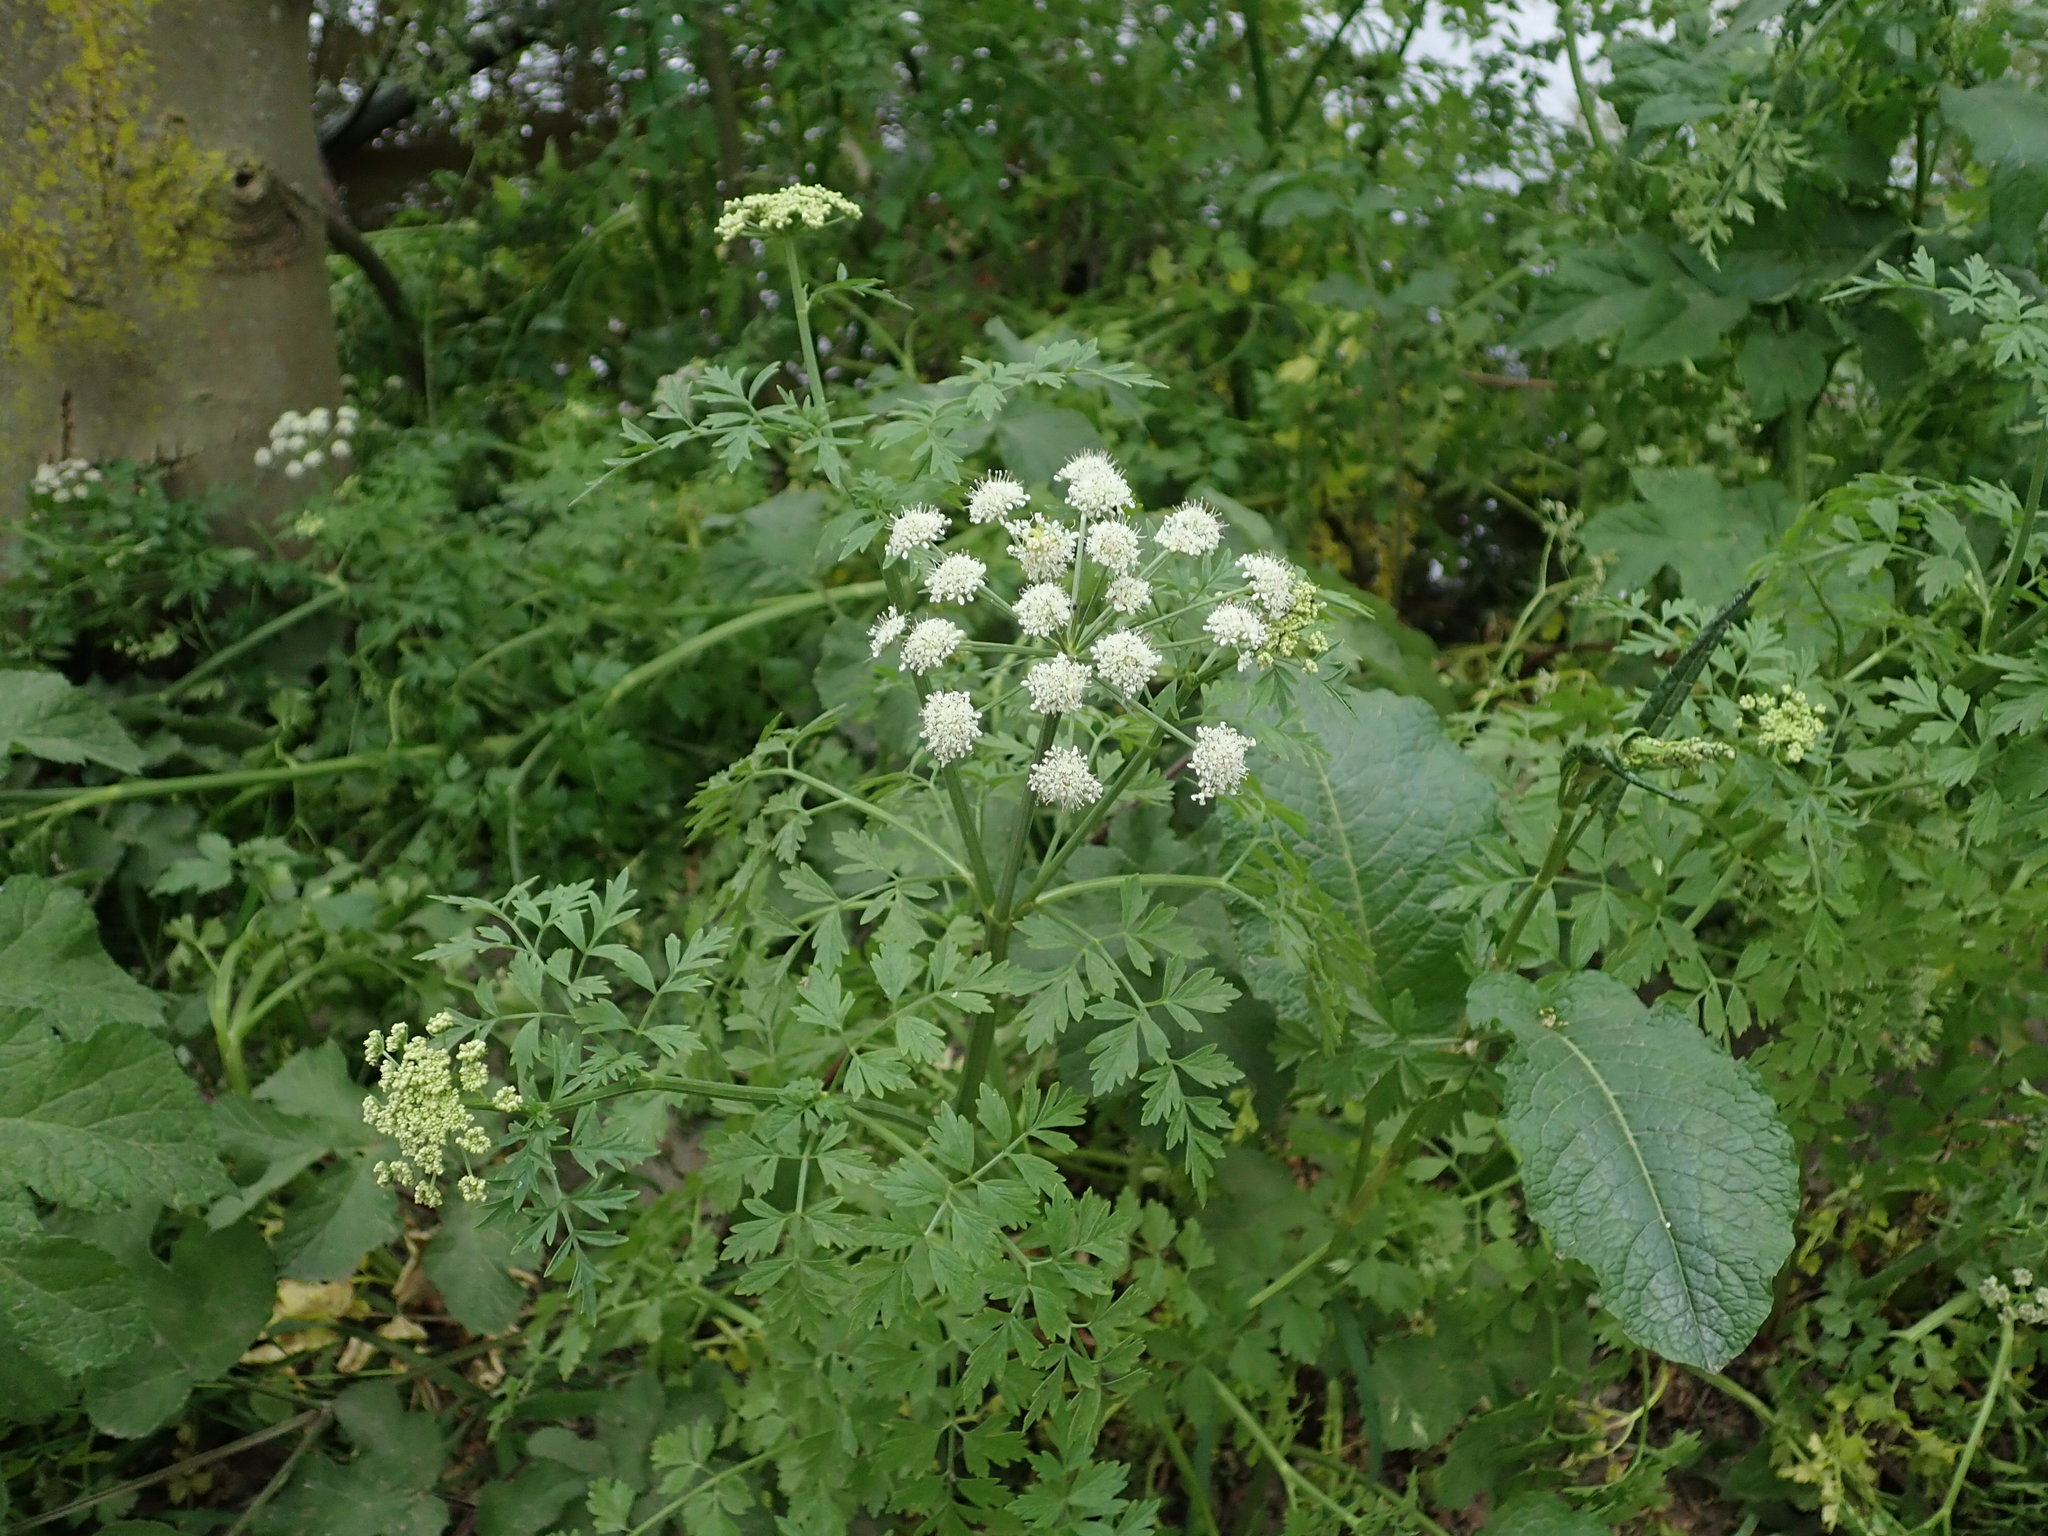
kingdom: Plantae
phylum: Tracheophyta
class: Magnoliopsida
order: Apiales
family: Apiaceae
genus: Oenanthe
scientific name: Oenanthe crocata
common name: Hemlock water-dropwort
